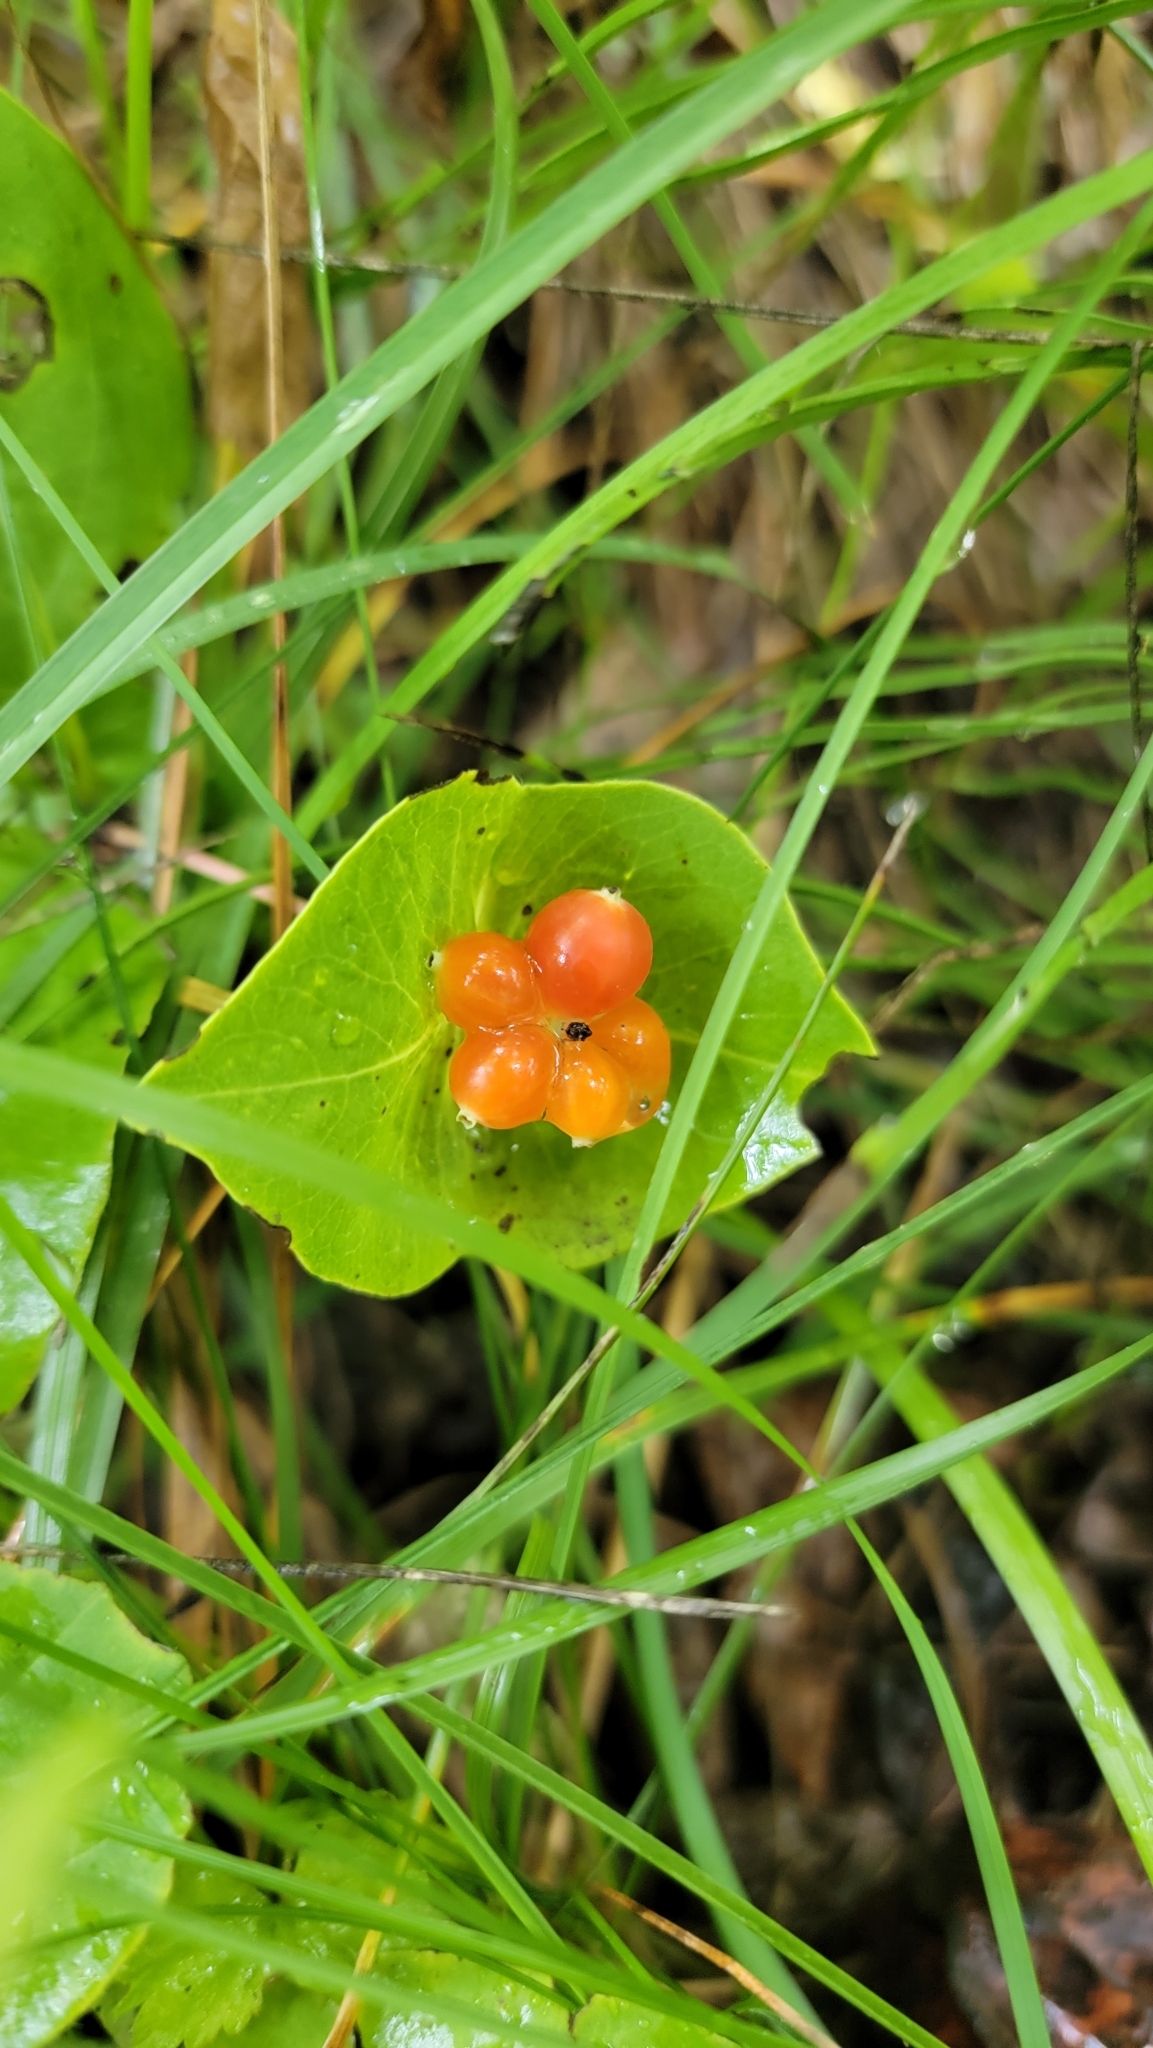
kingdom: Plantae
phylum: Tracheophyta
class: Magnoliopsida
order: Dipsacales
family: Caprifoliaceae
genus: Lonicera
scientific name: Lonicera dioica
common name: Limber honeysuckle
